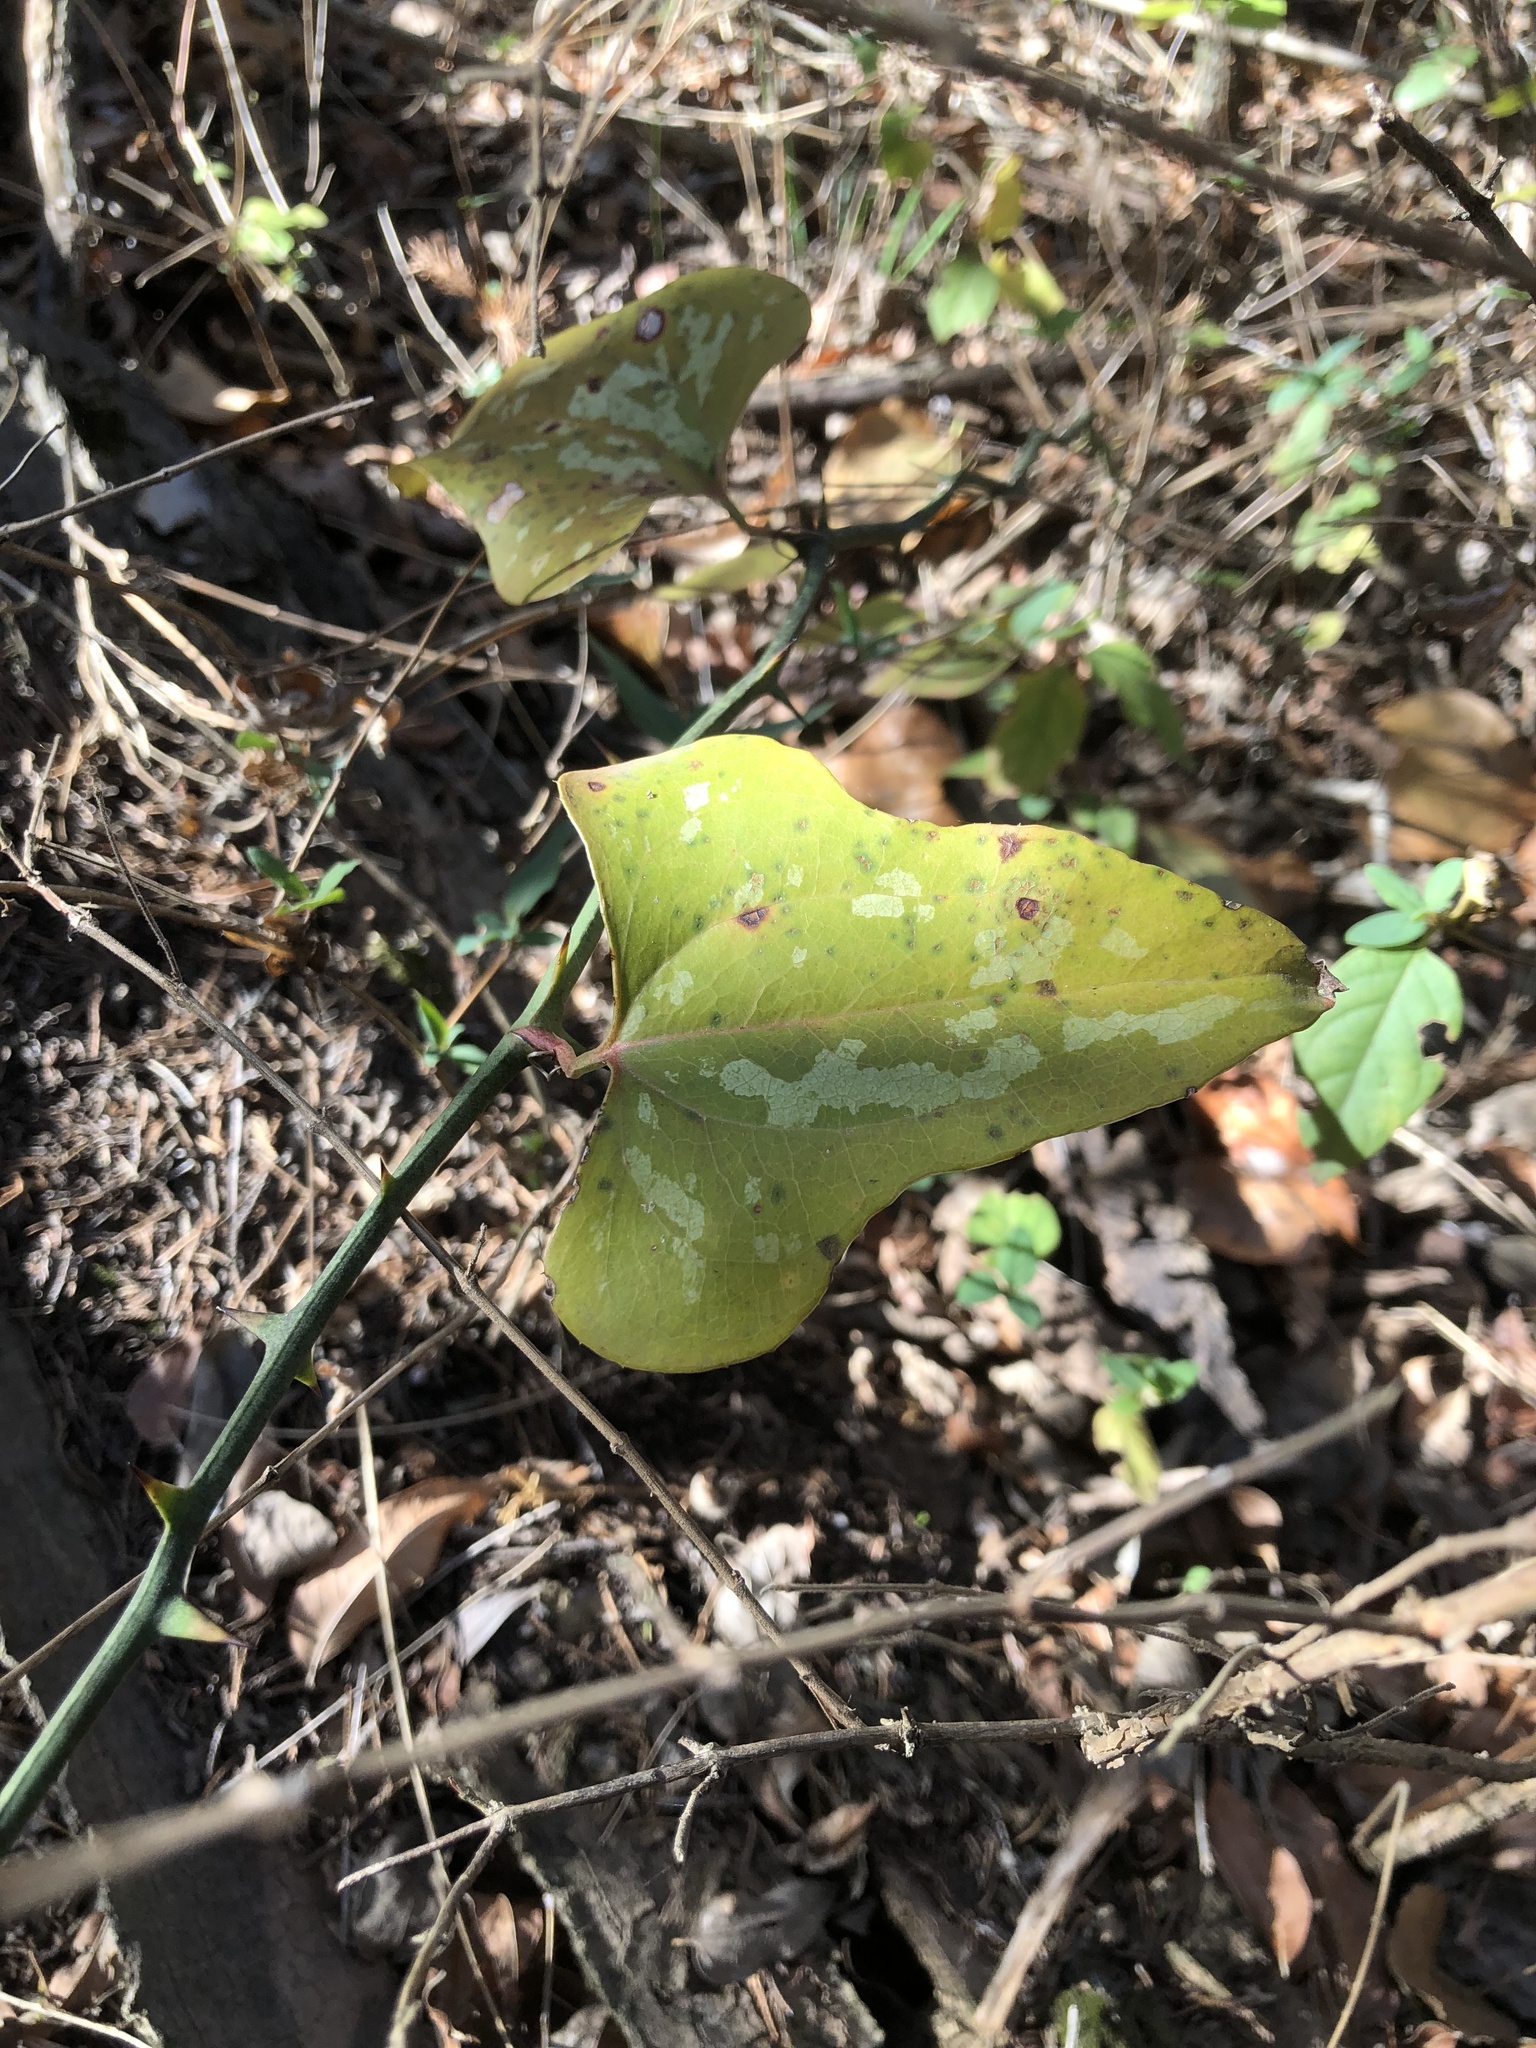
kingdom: Plantae
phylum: Tracheophyta
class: Liliopsida
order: Liliales
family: Smilacaceae
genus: Smilax
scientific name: Smilax bona-nox
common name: Catbrier
